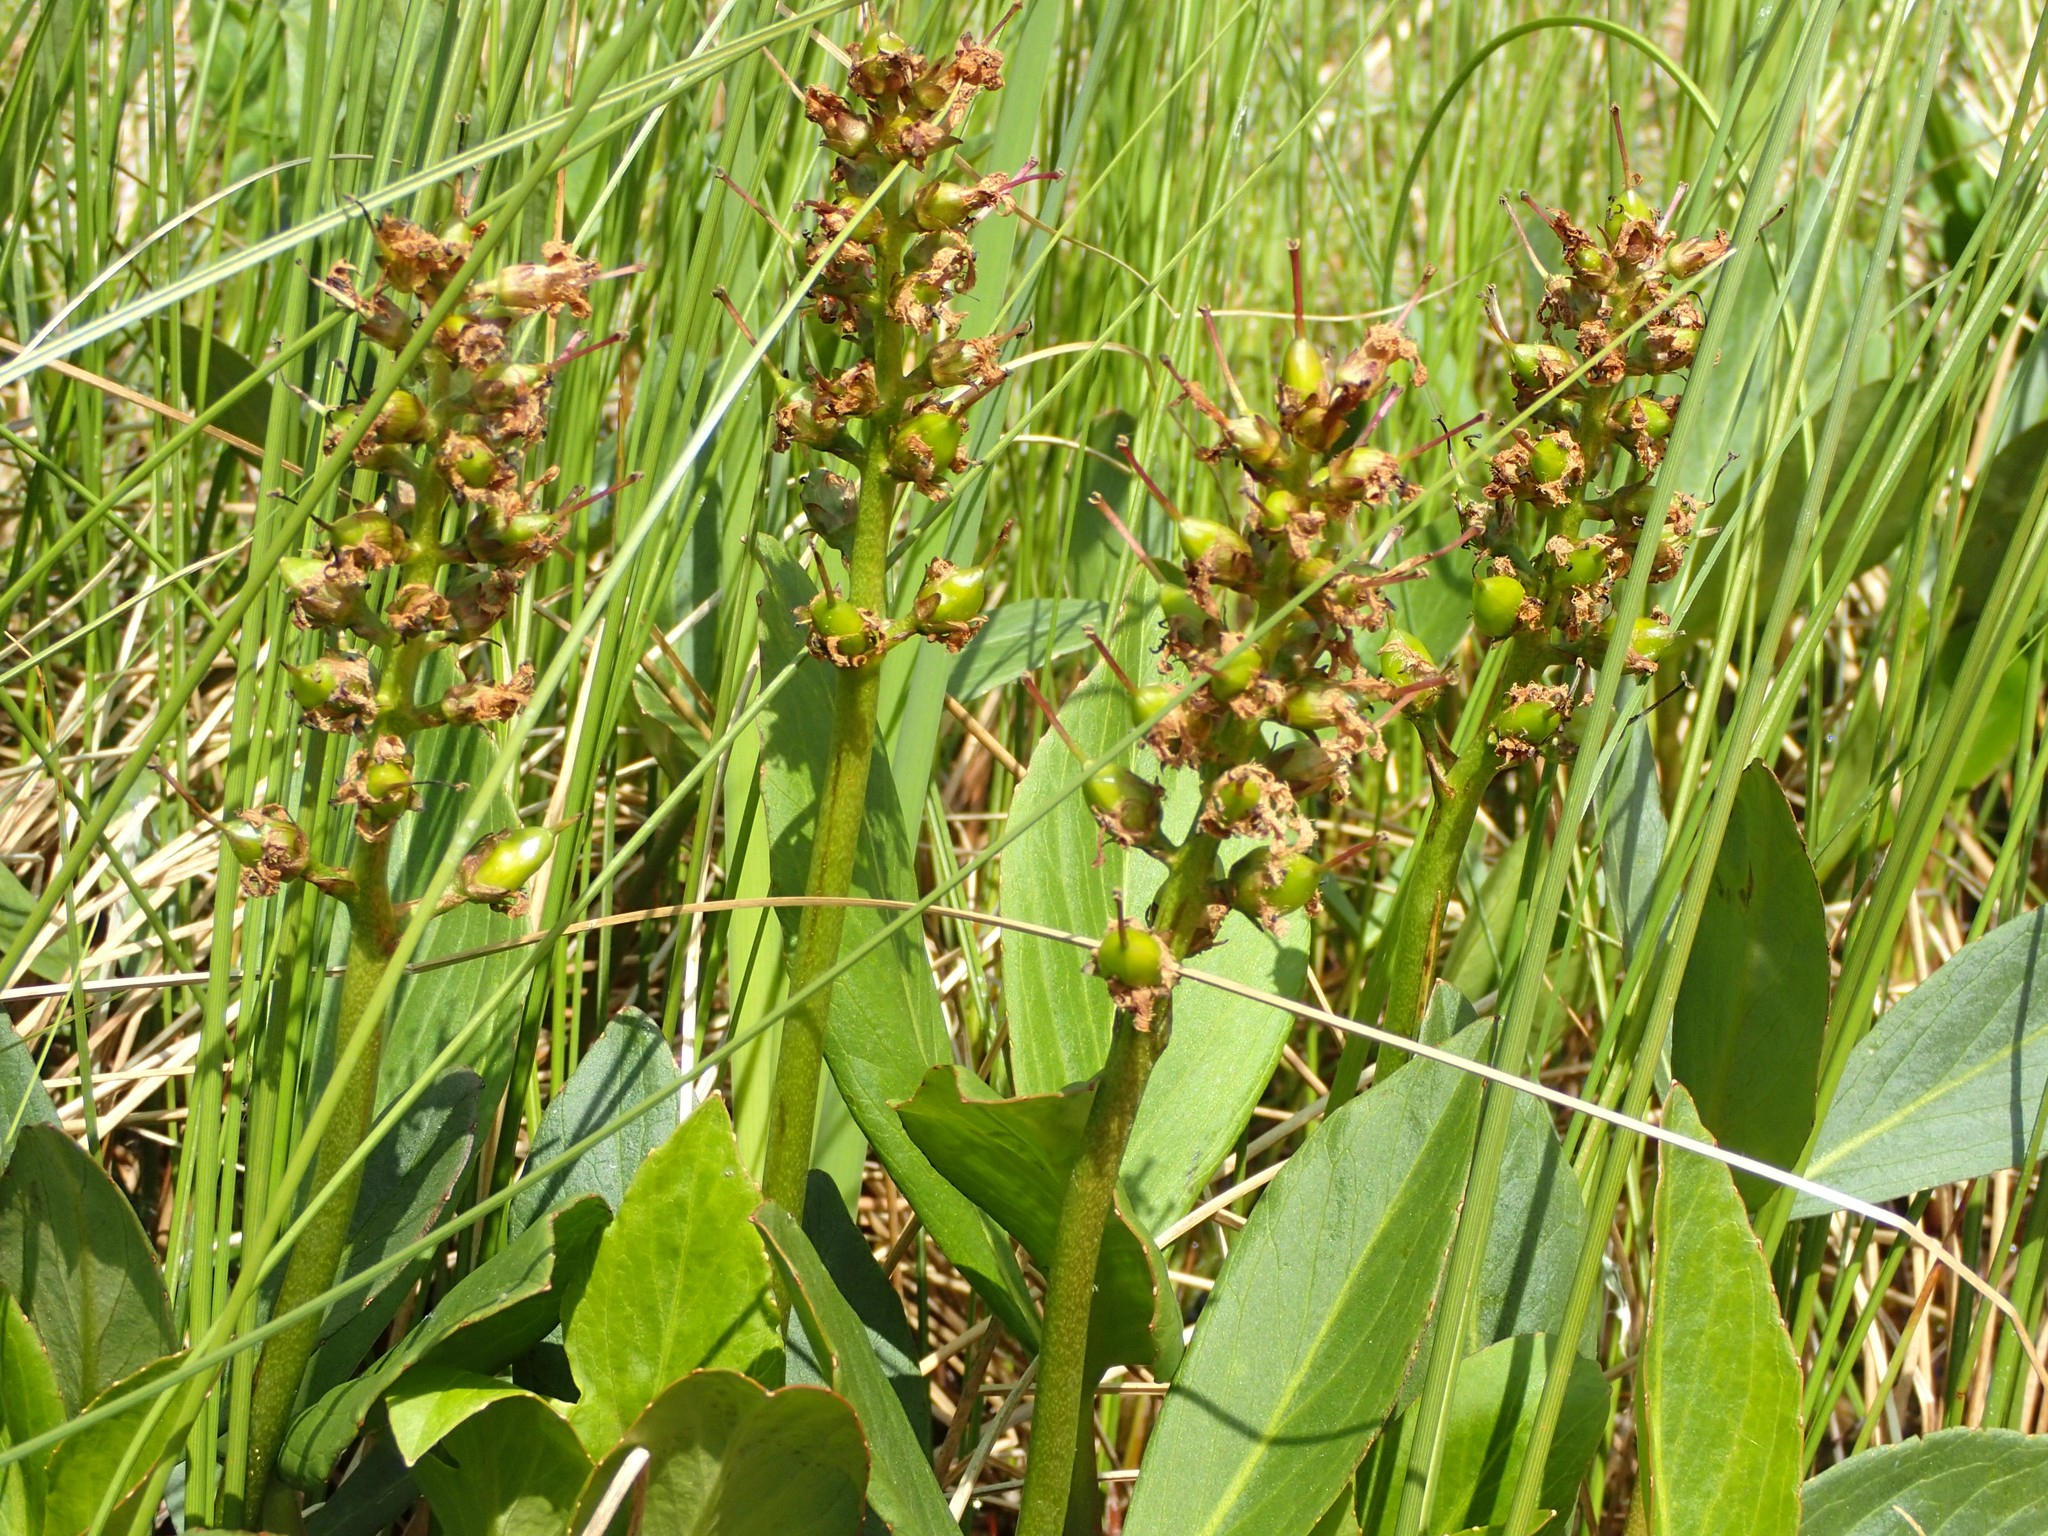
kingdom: Plantae
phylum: Tracheophyta
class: Magnoliopsida
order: Asterales
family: Menyanthaceae
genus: Menyanthes
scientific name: Menyanthes trifoliata
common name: Bogbean
